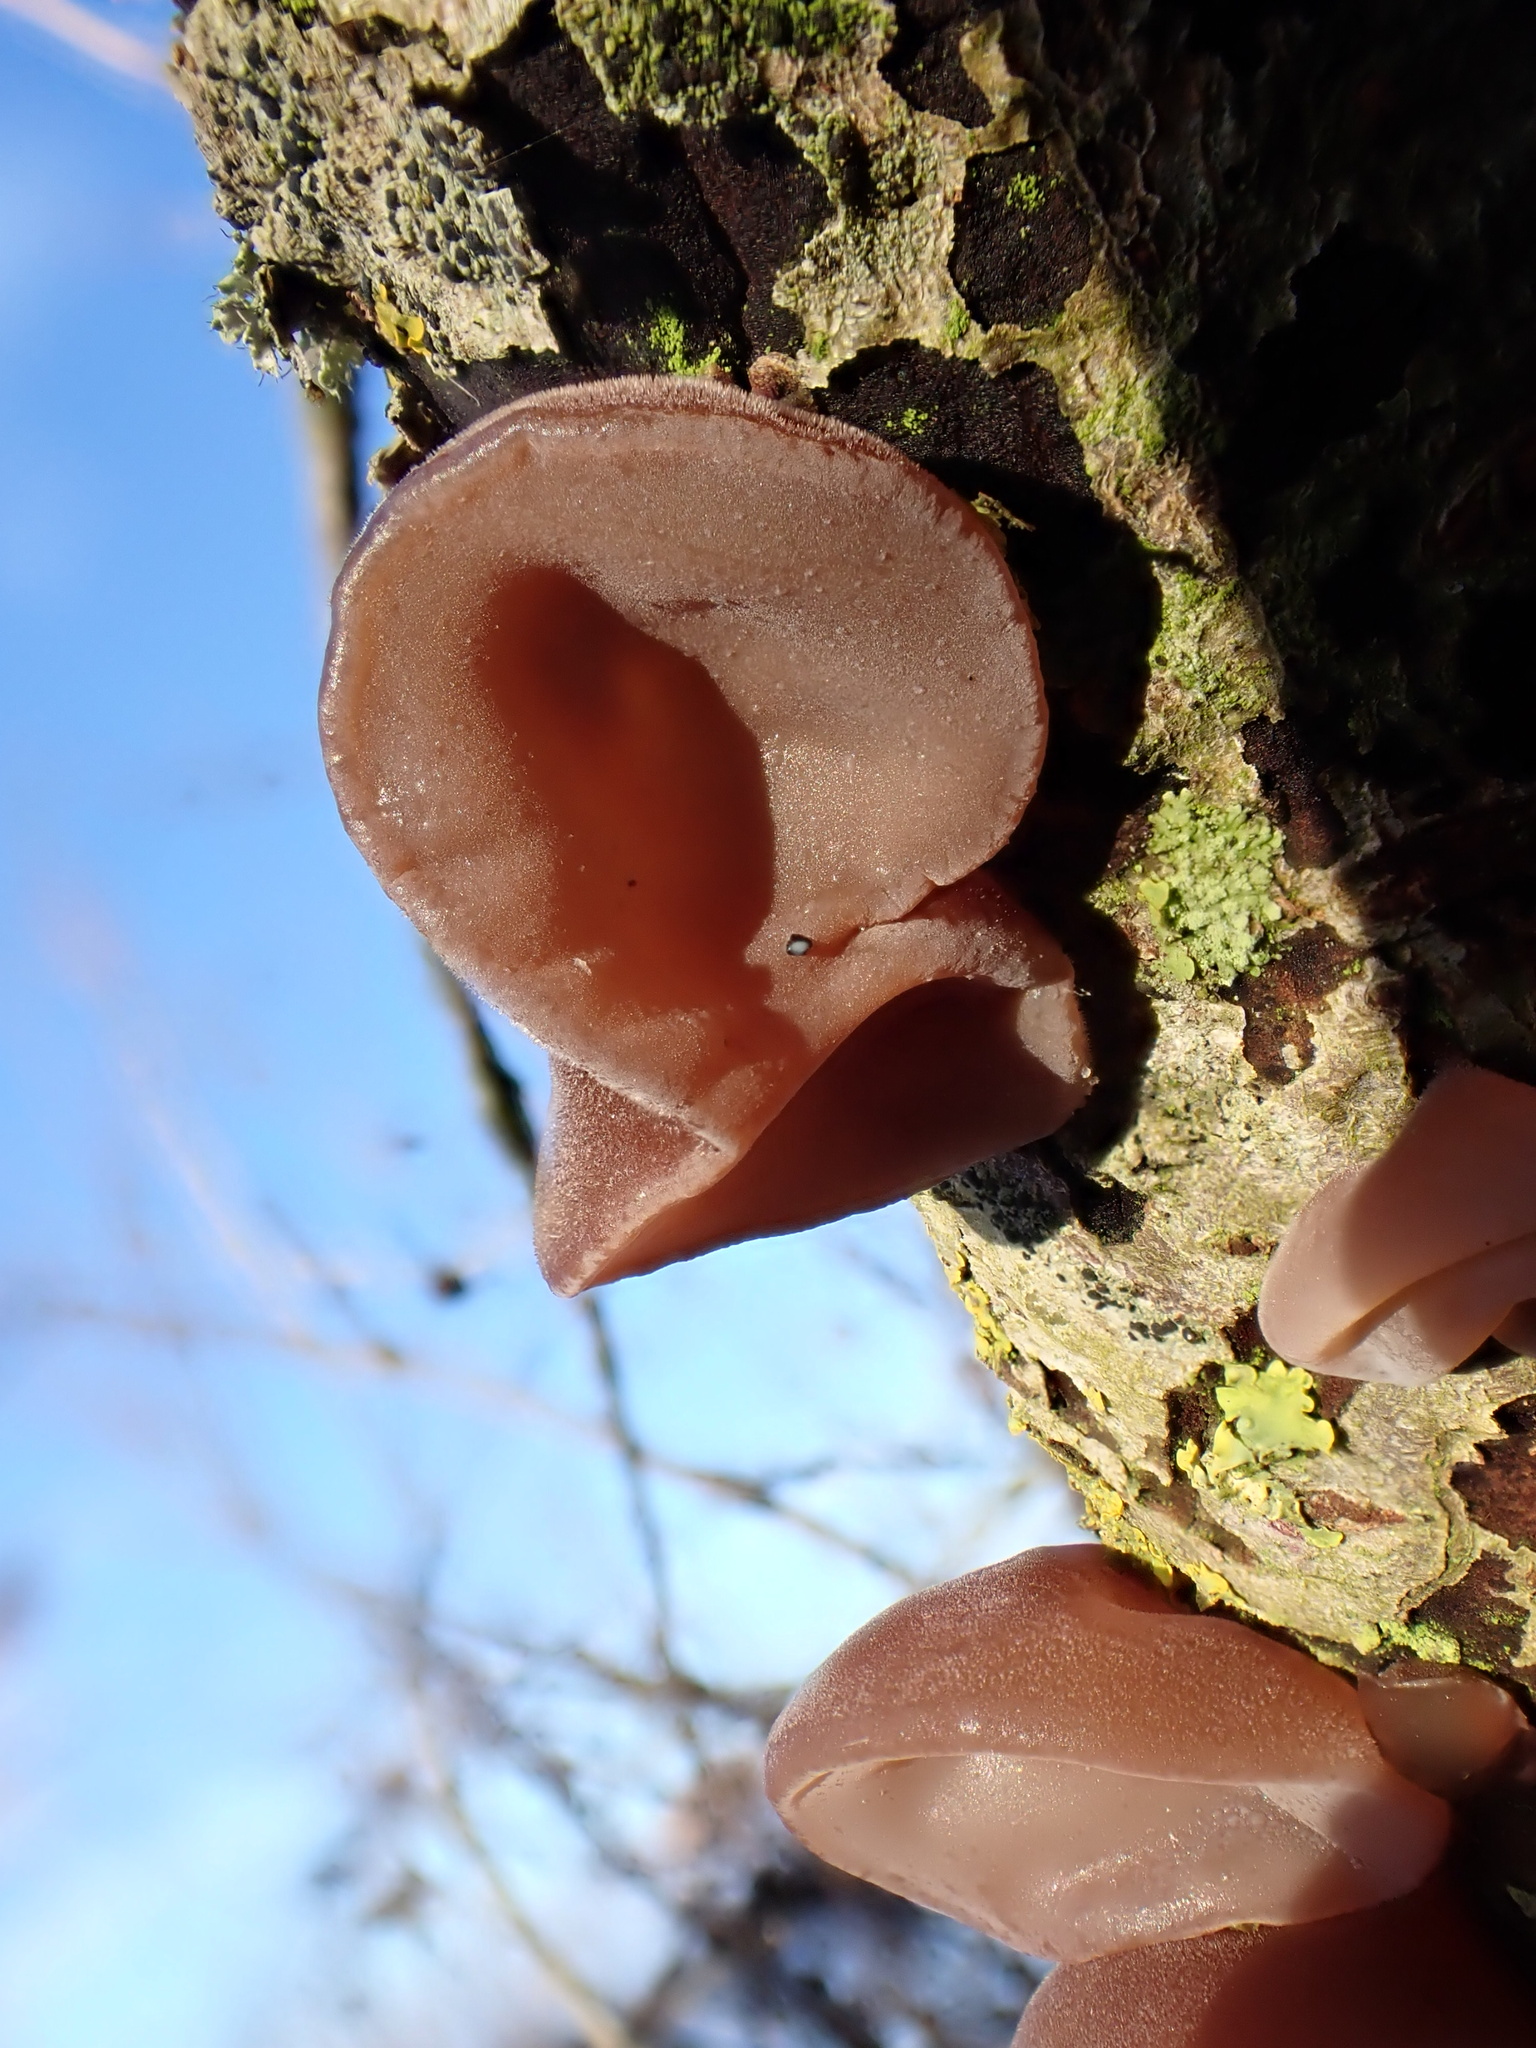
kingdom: Fungi
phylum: Basidiomycota
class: Agaricomycetes
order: Auriculariales
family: Auriculariaceae
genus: Auricularia
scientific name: Auricularia auricula-judae
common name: Jelly ear
